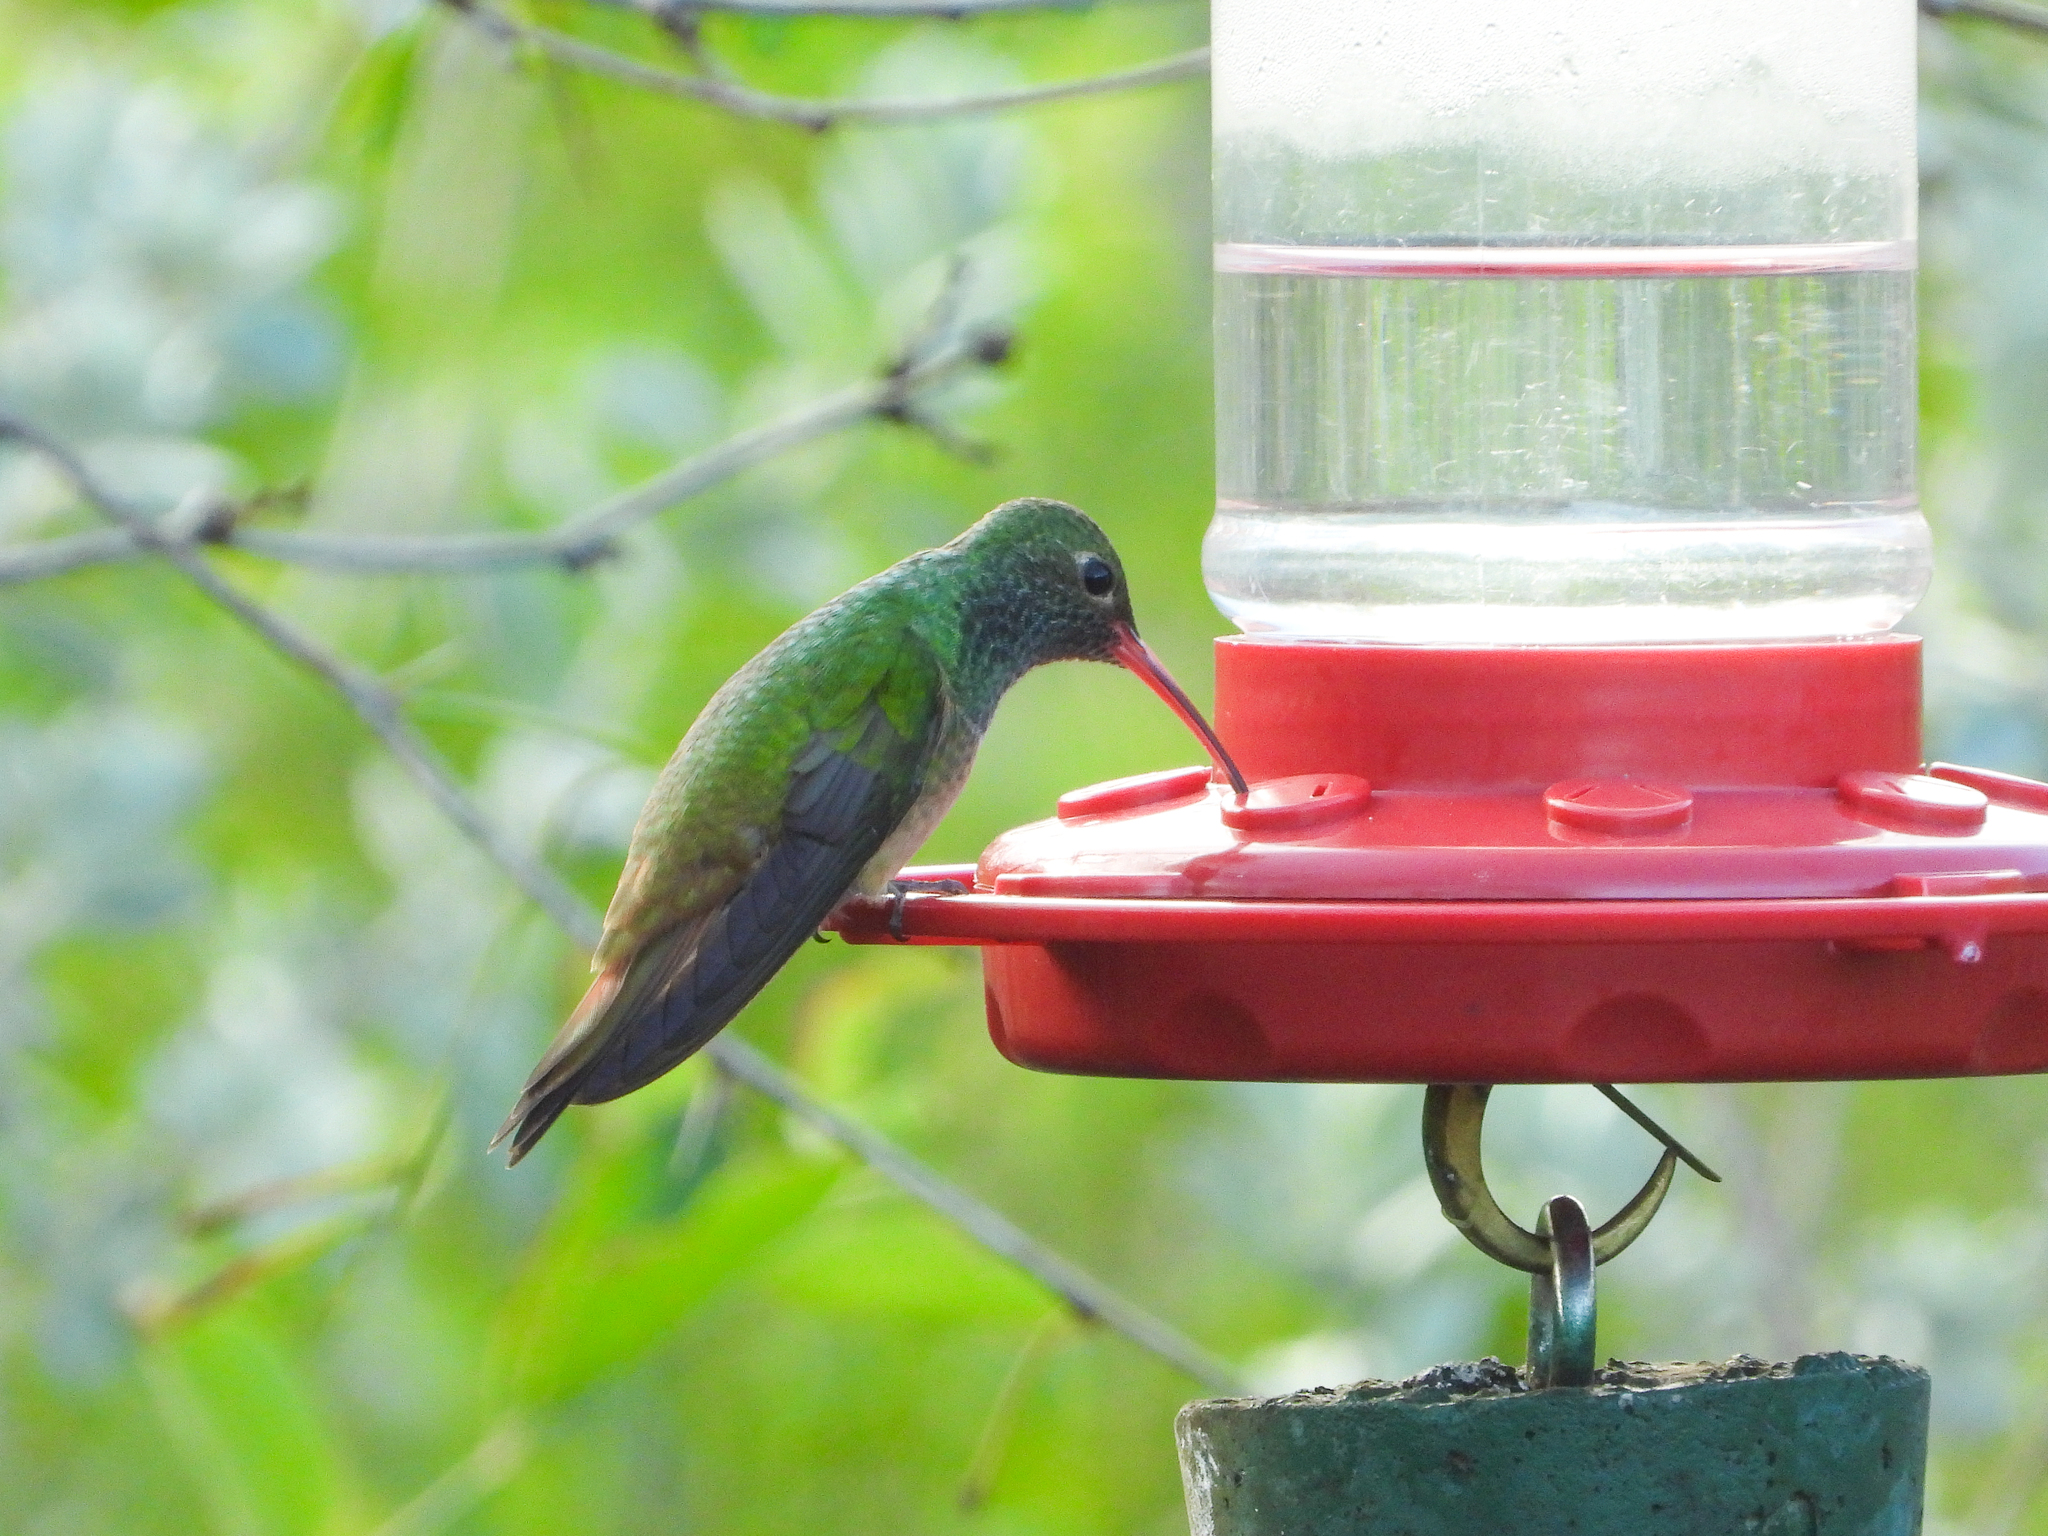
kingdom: Animalia
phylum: Chordata
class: Aves
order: Apodiformes
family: Trochilidae
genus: Amazilia
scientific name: Amazilia yucatanensis
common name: Buff-bellied hummingbird
